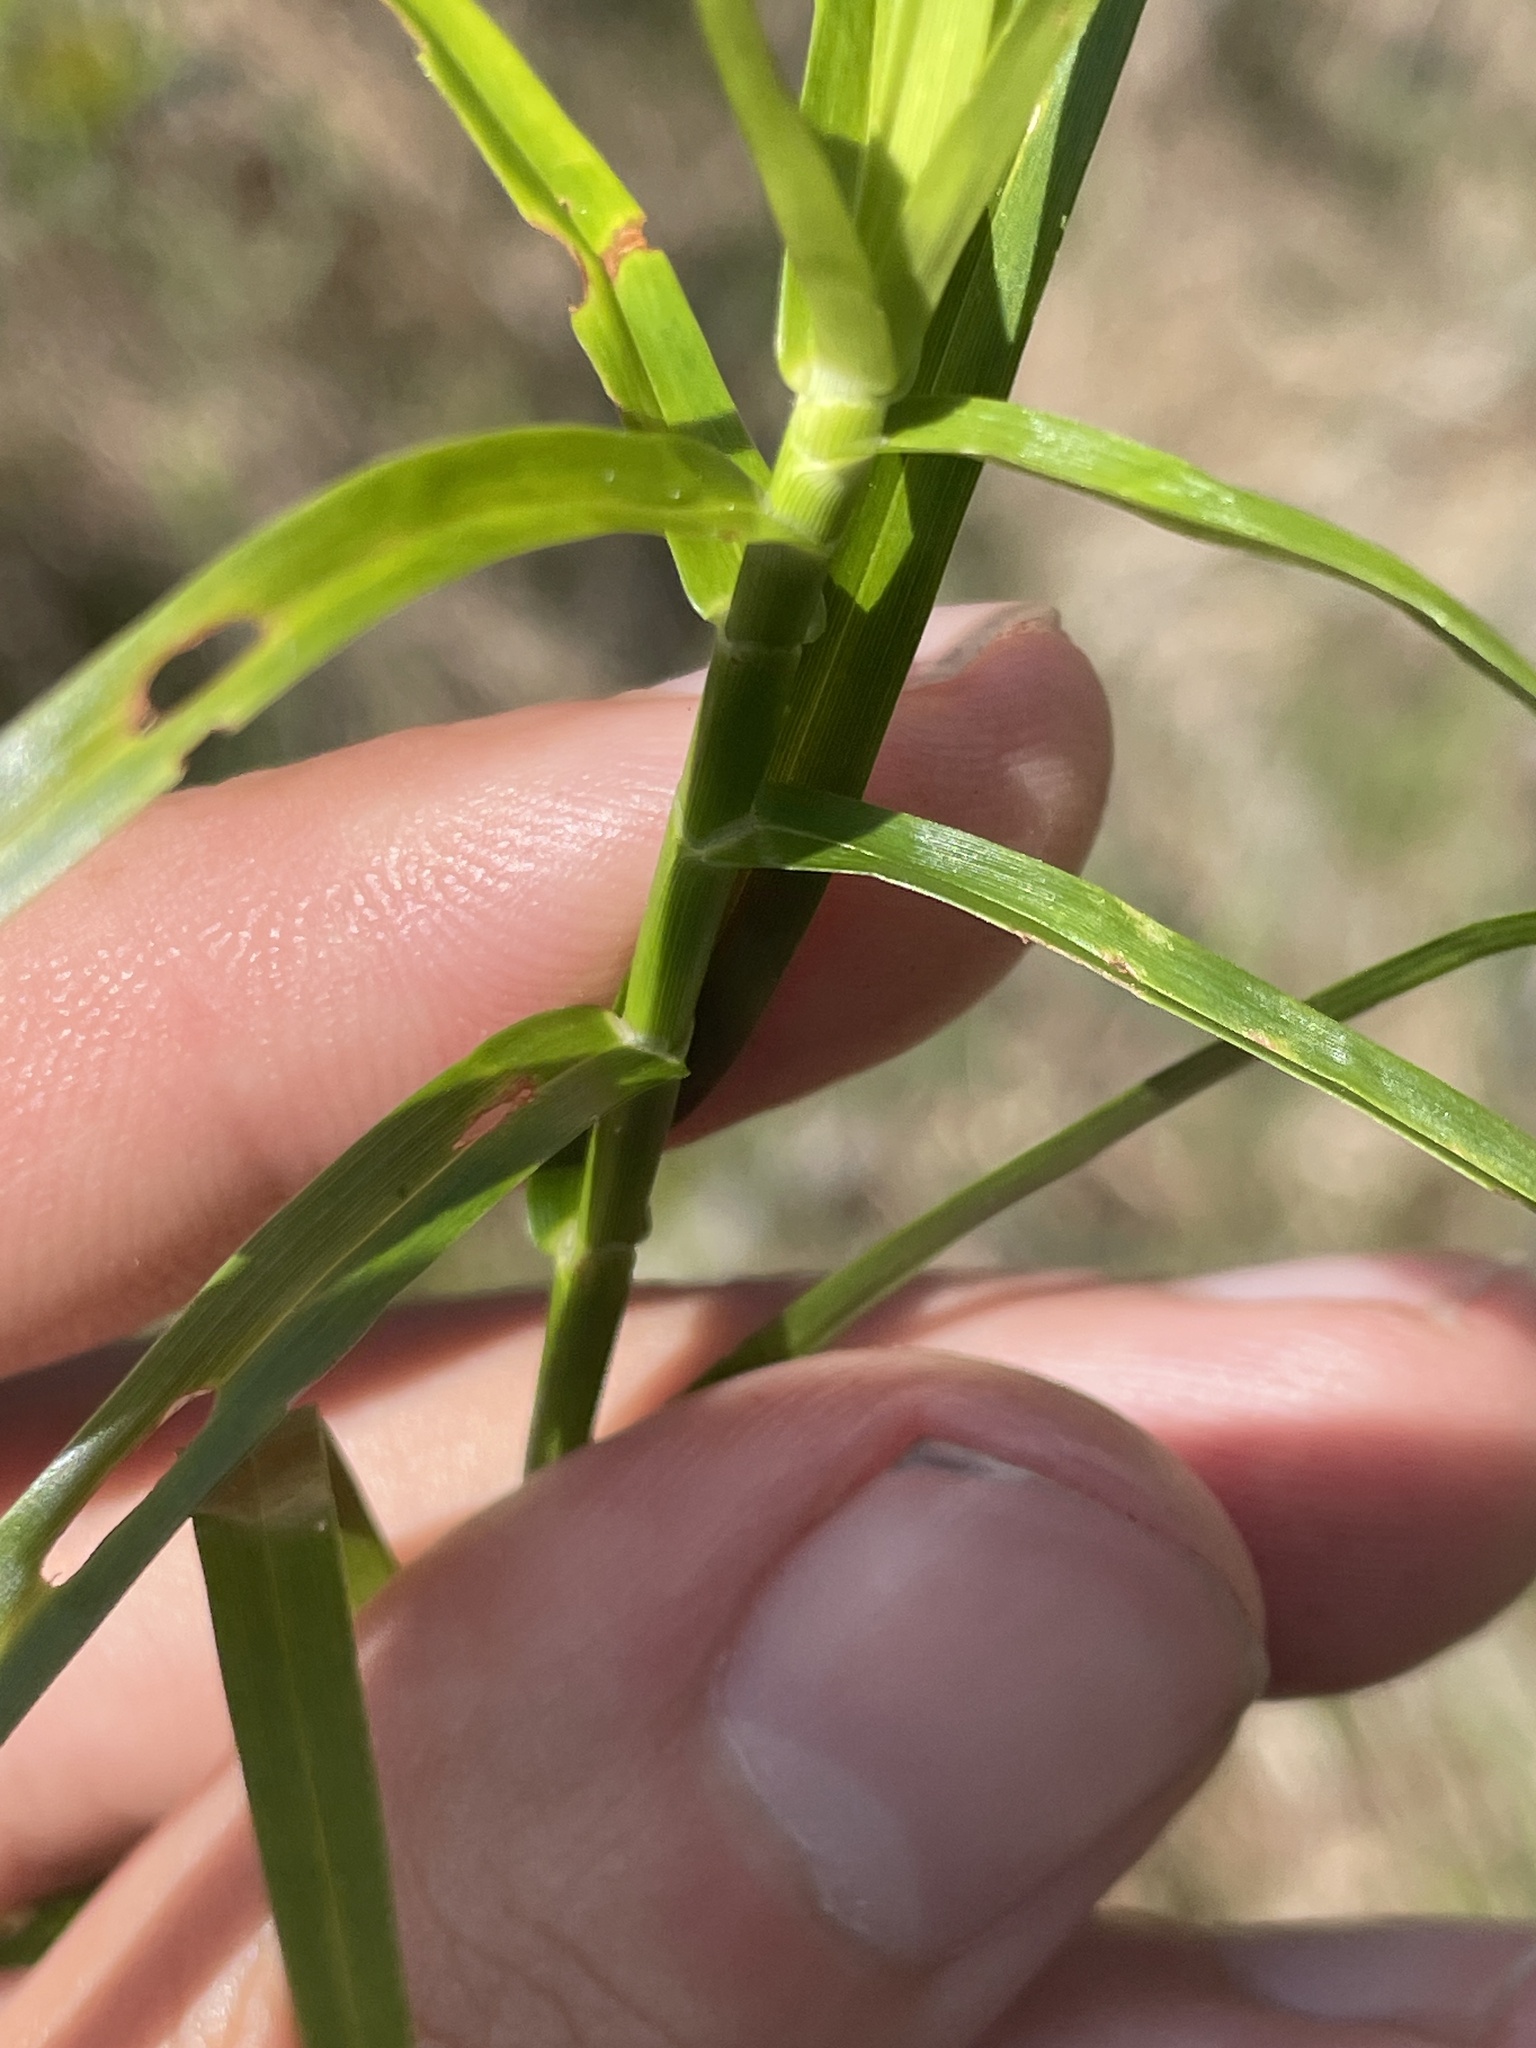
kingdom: Plantae
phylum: Tracheophyta
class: Liliopsida
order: Poales
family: Cyperaceae
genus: Dulichium
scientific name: Dulichium arundinaceum
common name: Three-way sedge
